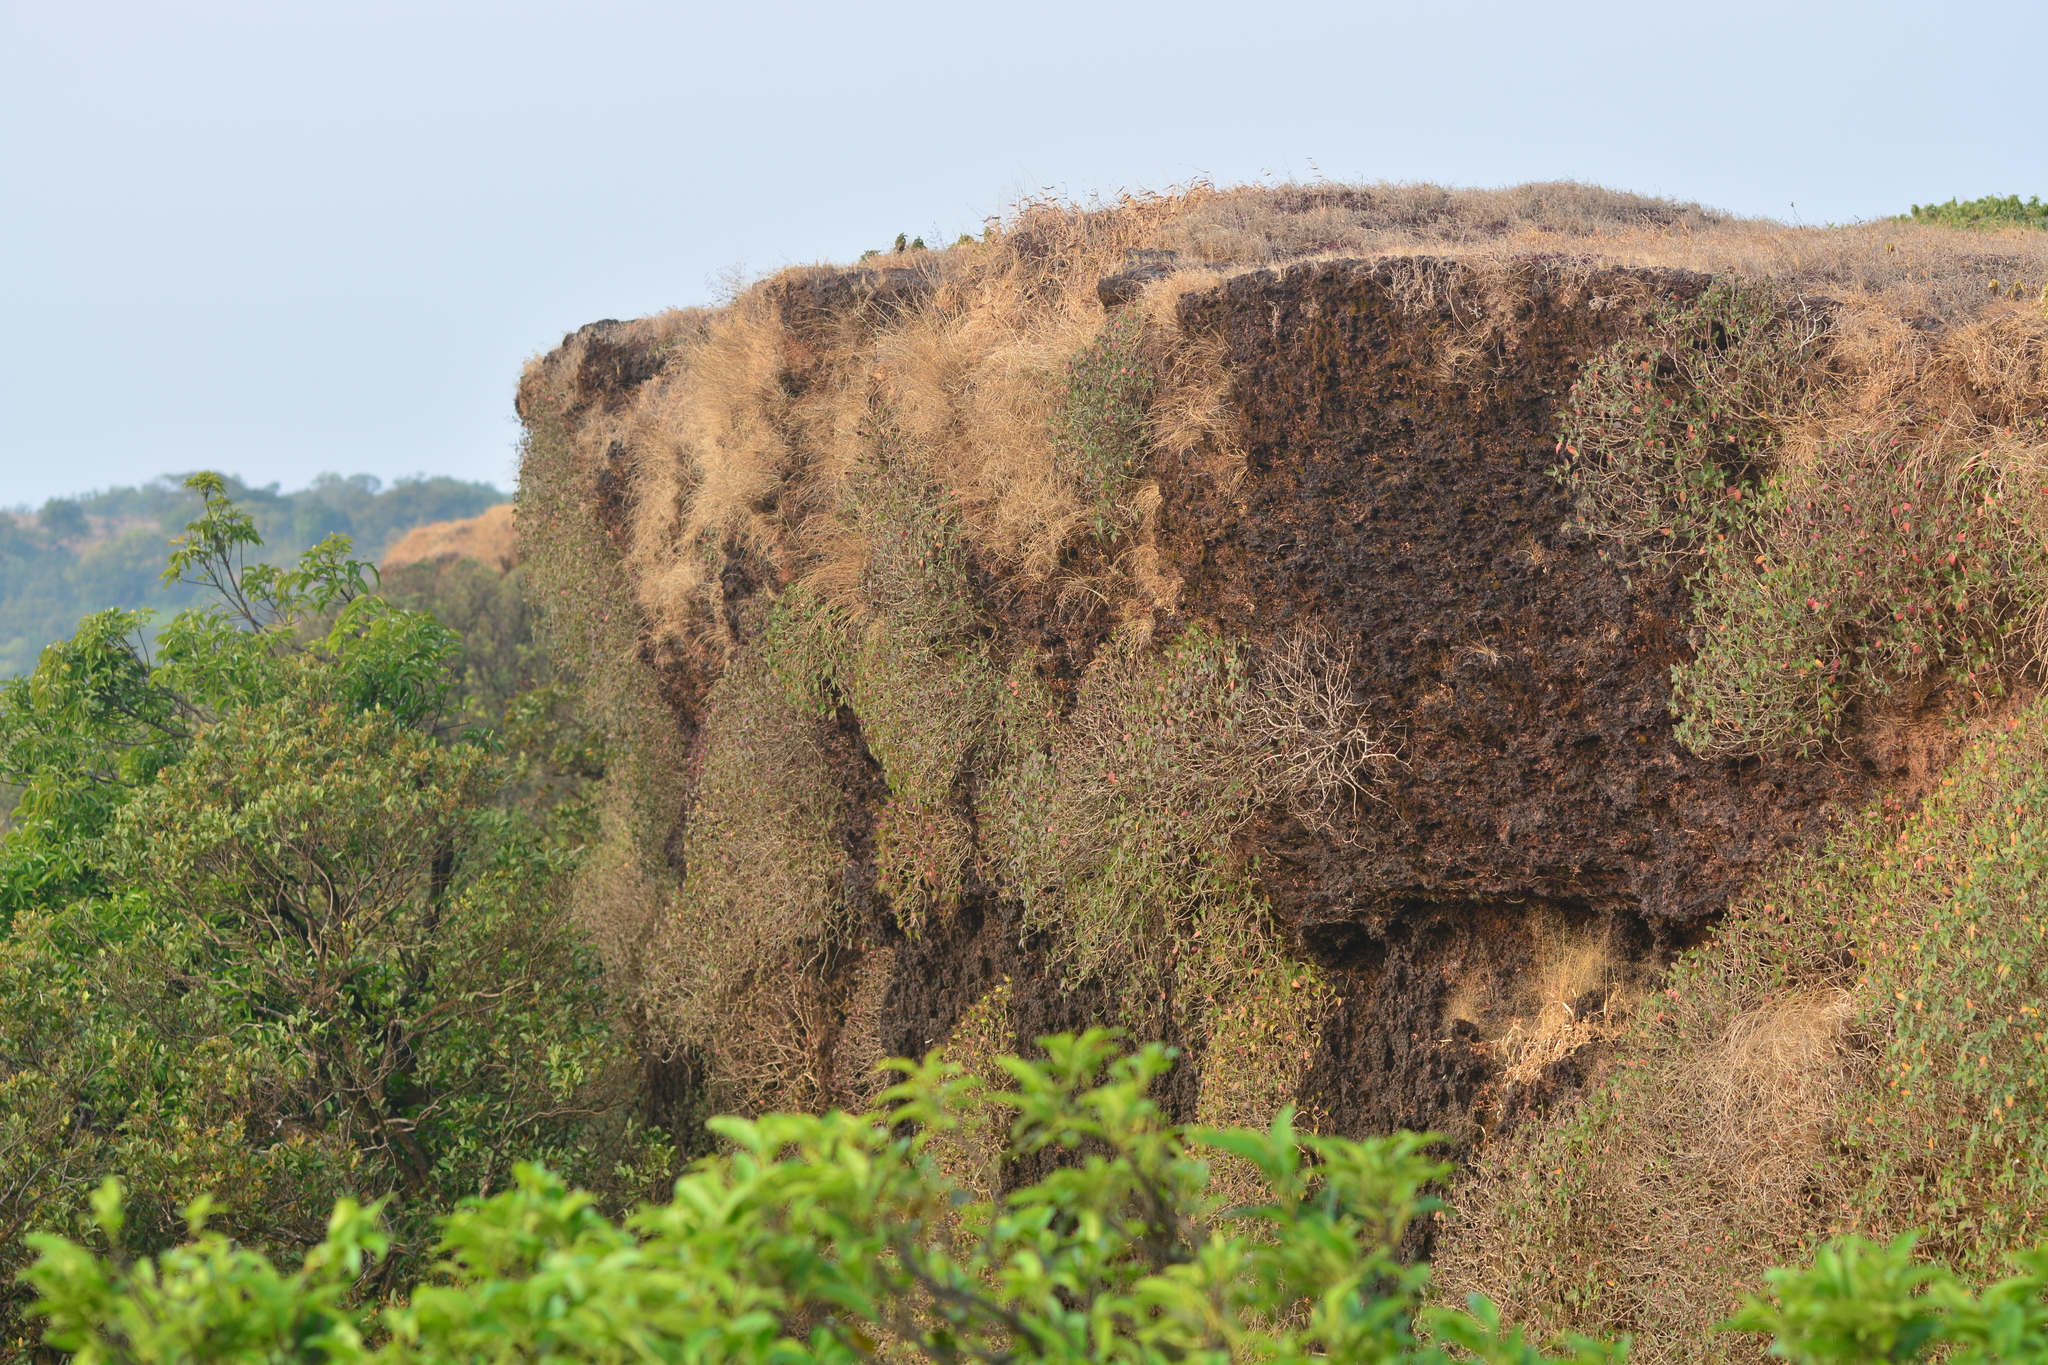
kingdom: Plantae
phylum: Tracheophyta
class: Magnoliopsida
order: Lamiales
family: Acanthaceae
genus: Strobilanthes
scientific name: Strobilanthes scrobiculata
